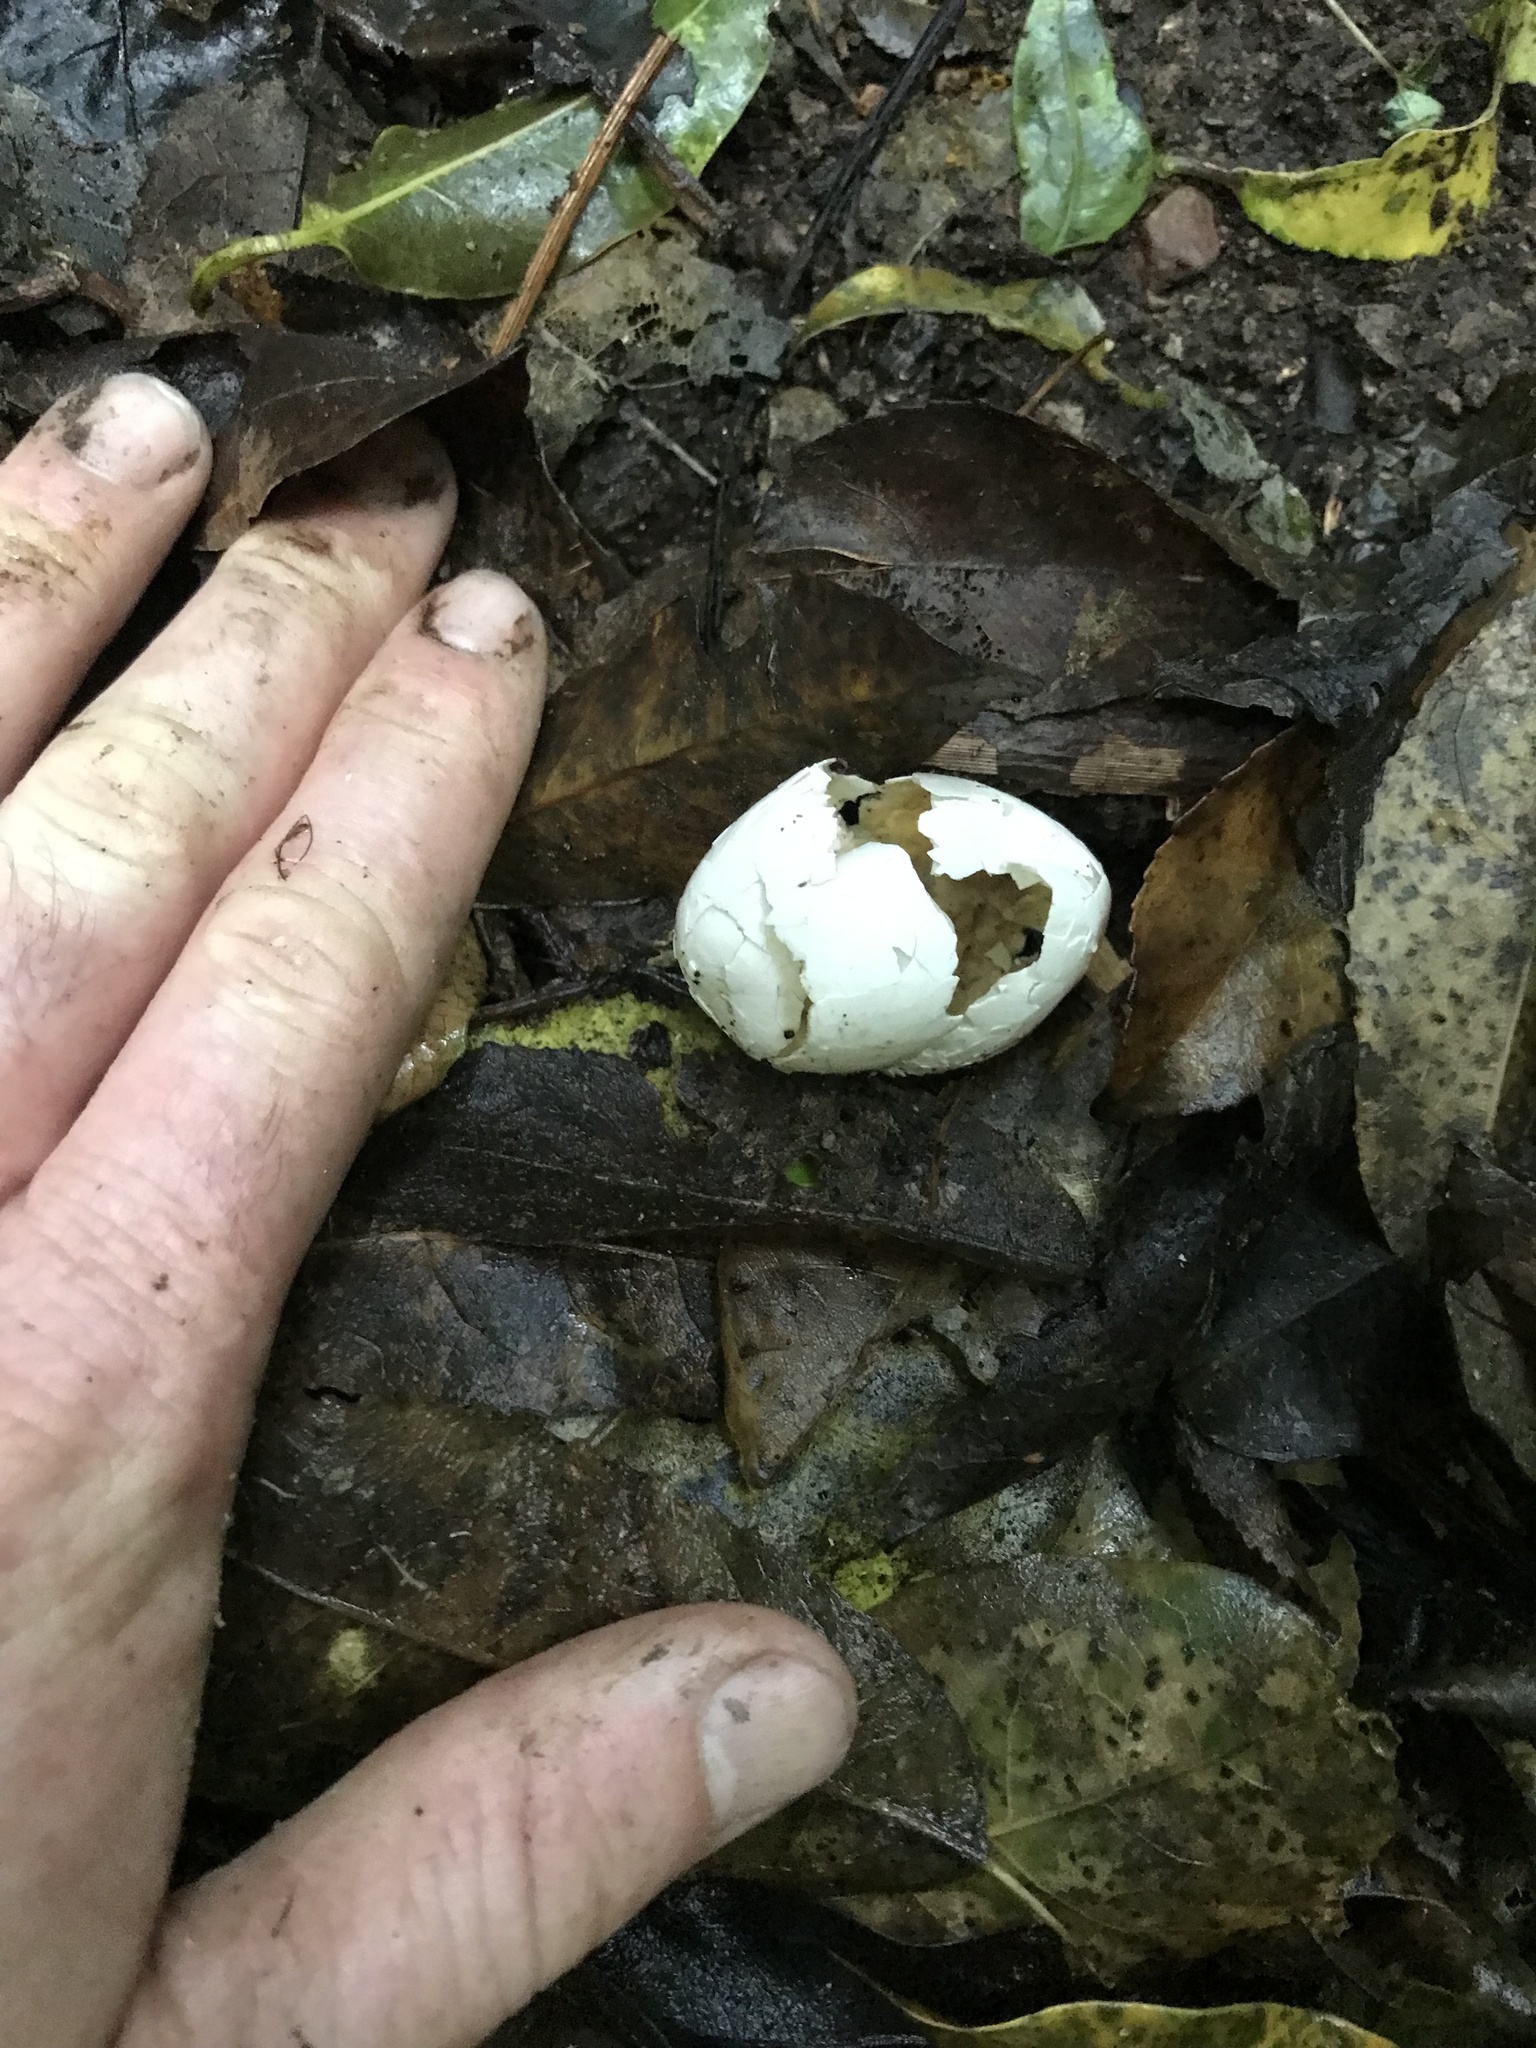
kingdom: Animalia
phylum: Chordata
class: Aves
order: Psittaciformes
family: Psittacidae
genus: Nestor
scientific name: Nestor meridionalis
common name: New zealand kaka
